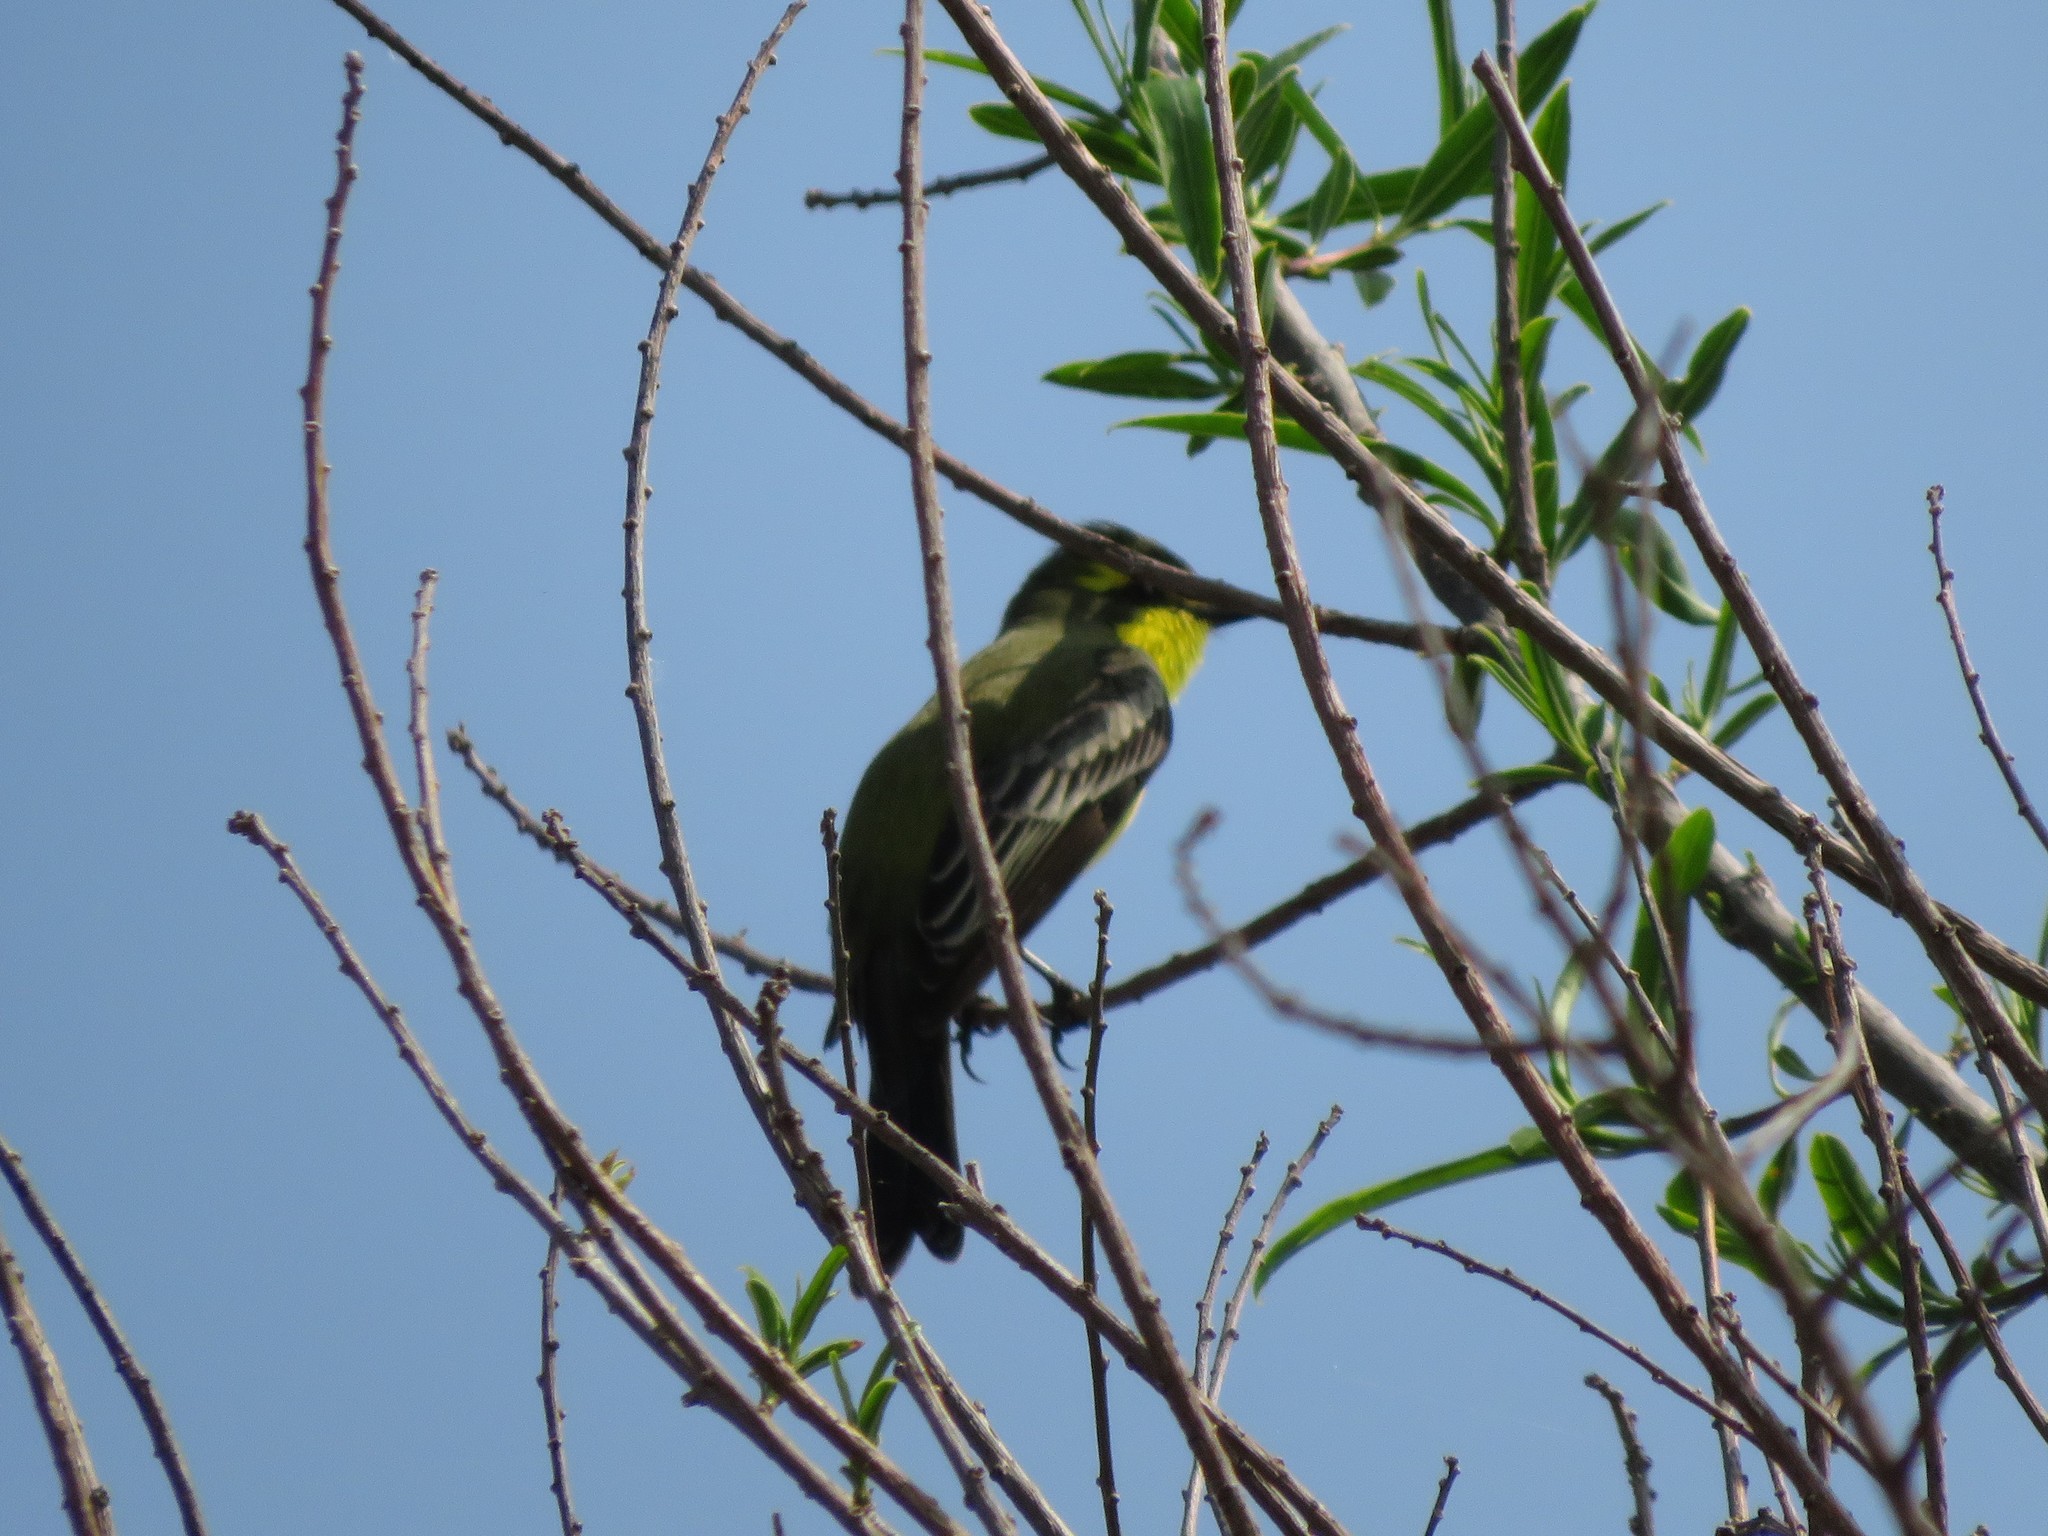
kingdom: Animalia
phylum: Chordata
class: Aves
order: Passeriformes
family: Tyrannidae
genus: Satrapa
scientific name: Satrapa icterophrys
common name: Yellow-browed tyrant
